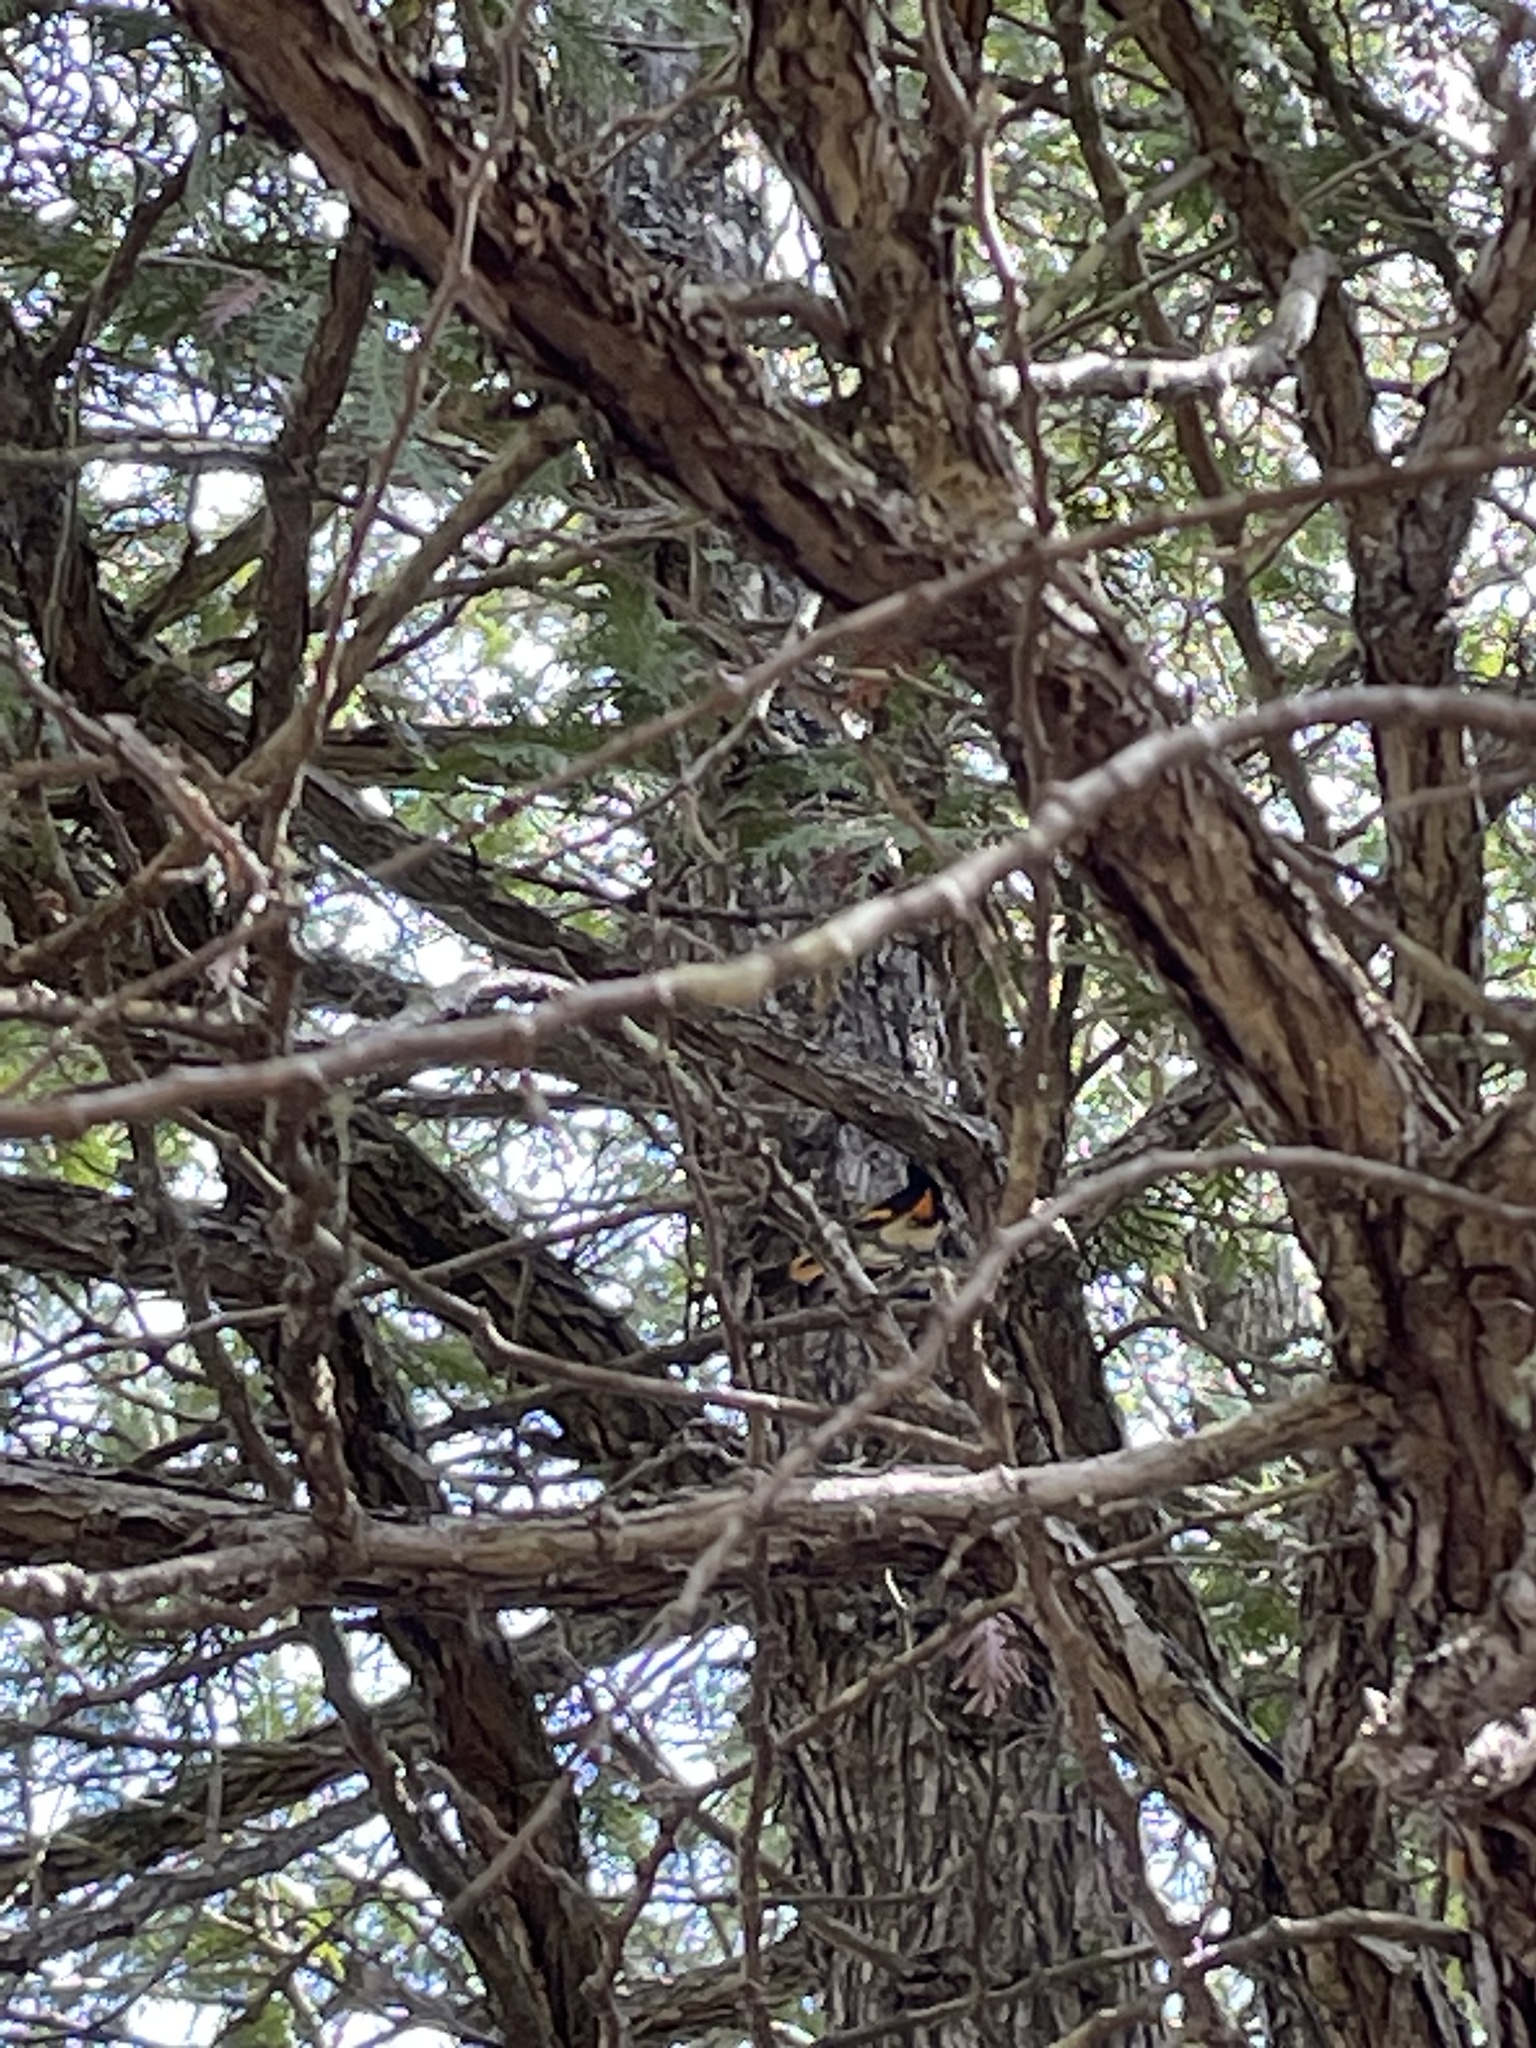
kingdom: Animalia
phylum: Chordata
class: Aves
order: Passeriformes
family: Parulidae
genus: Setophaga
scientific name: Setophaga ruticilla
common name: American redstart
